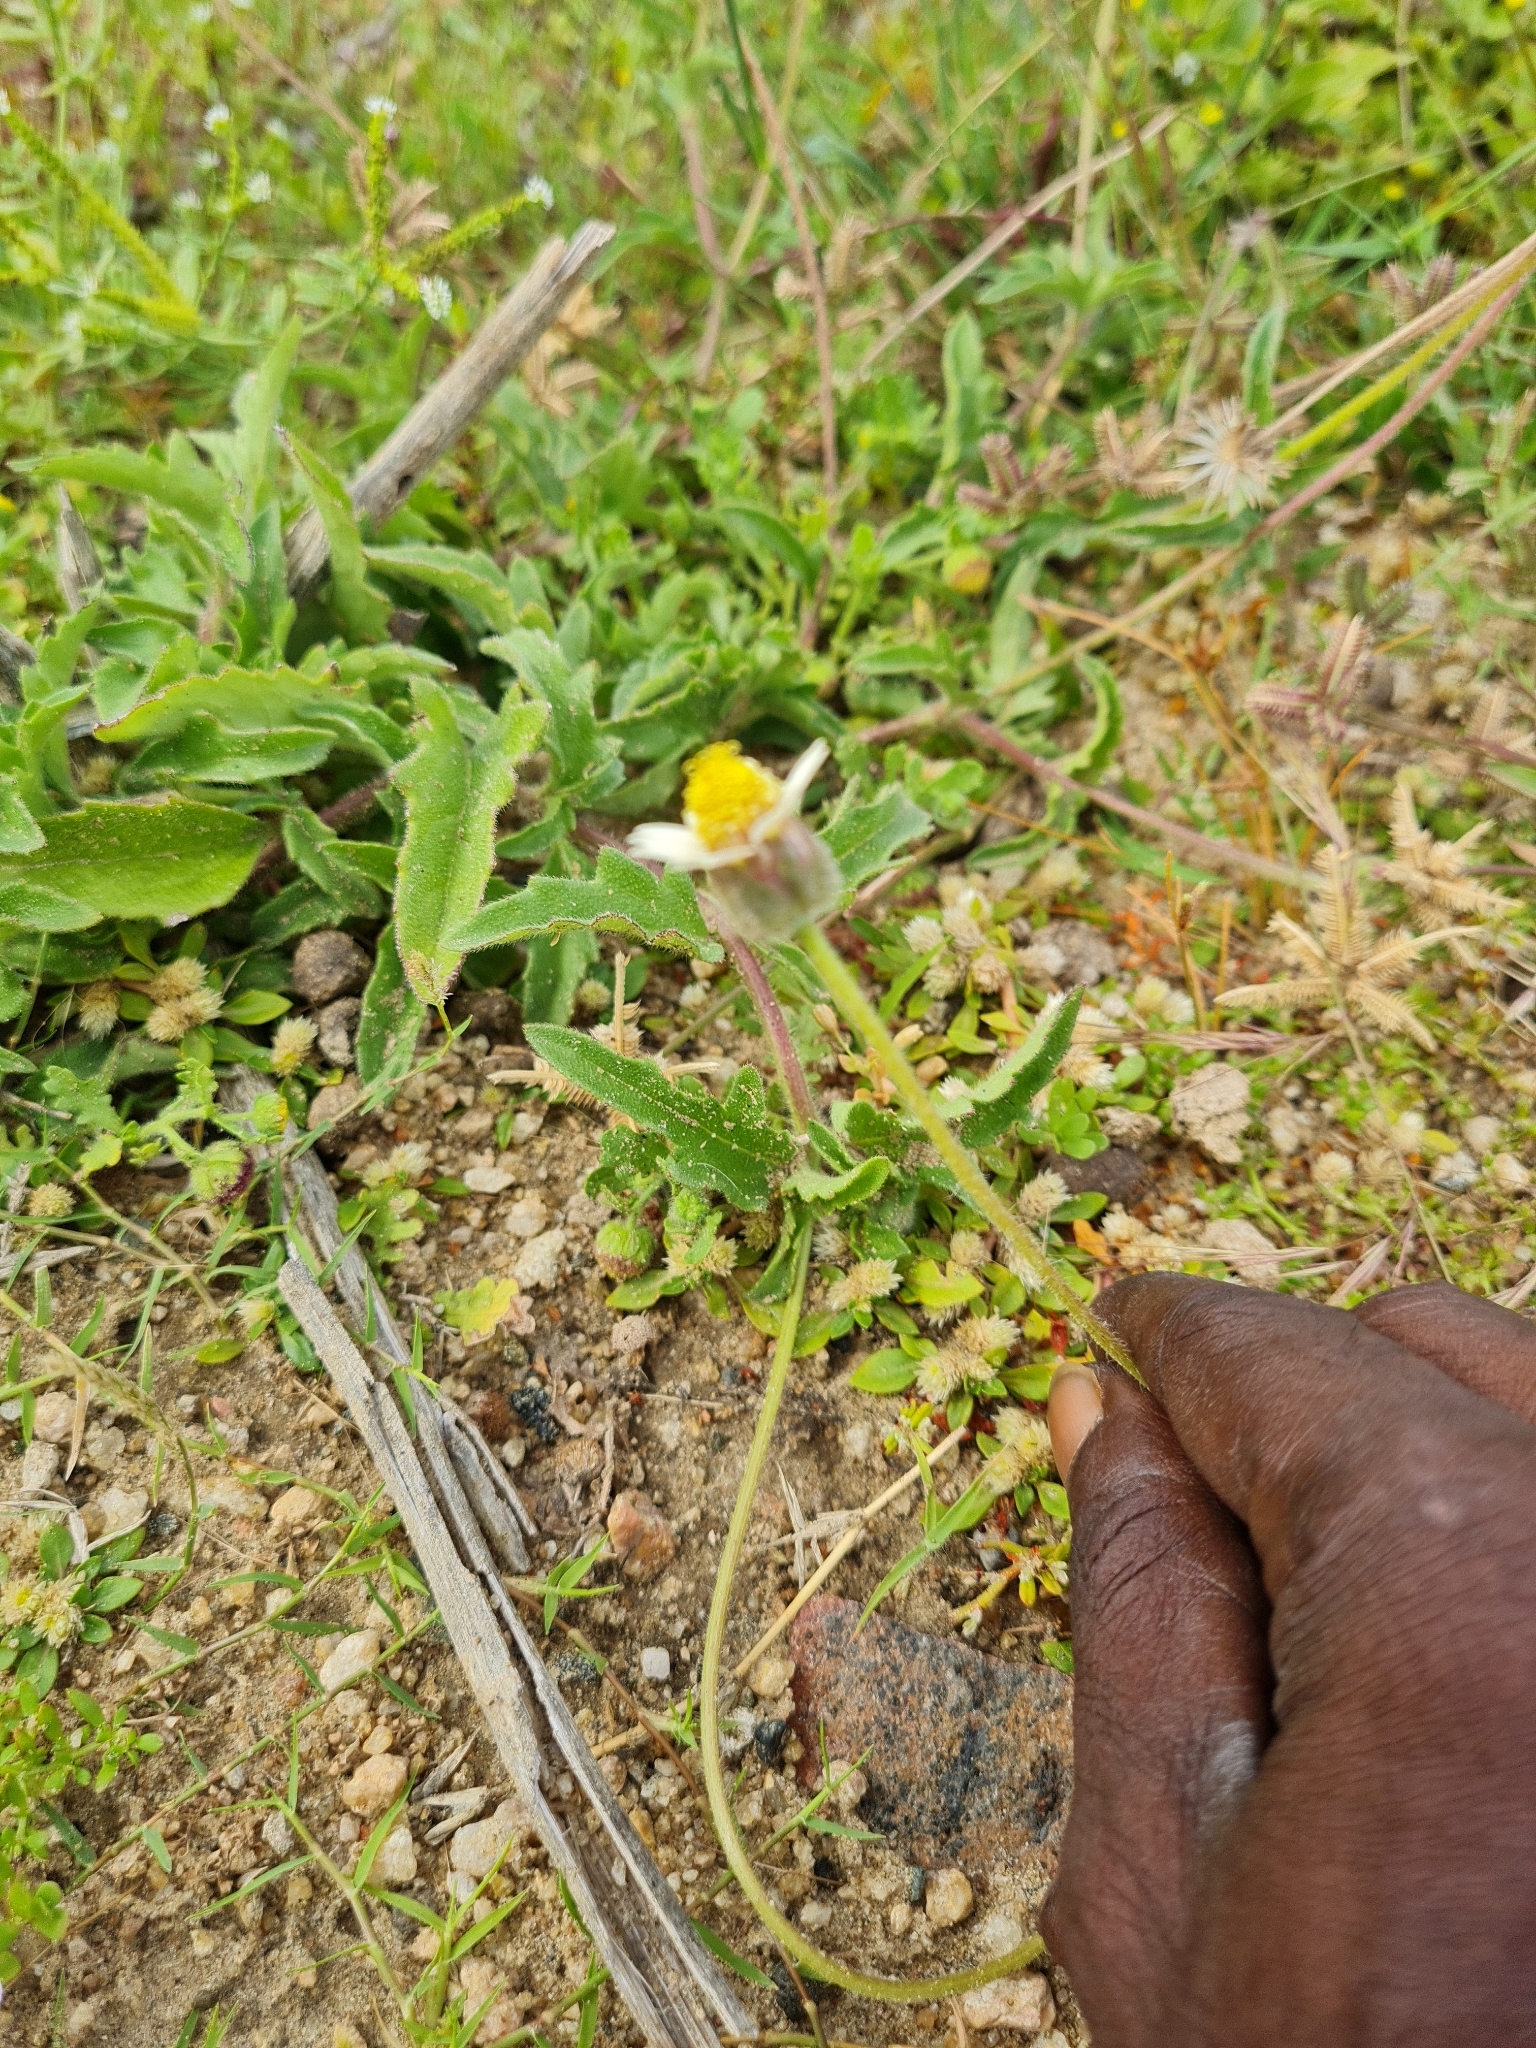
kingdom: Plantae
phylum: Tracheophyta
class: Magnoliopsida
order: Asterales
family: Asteraceae
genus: Tridax
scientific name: Tridax procumbens
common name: Coatbuttons
